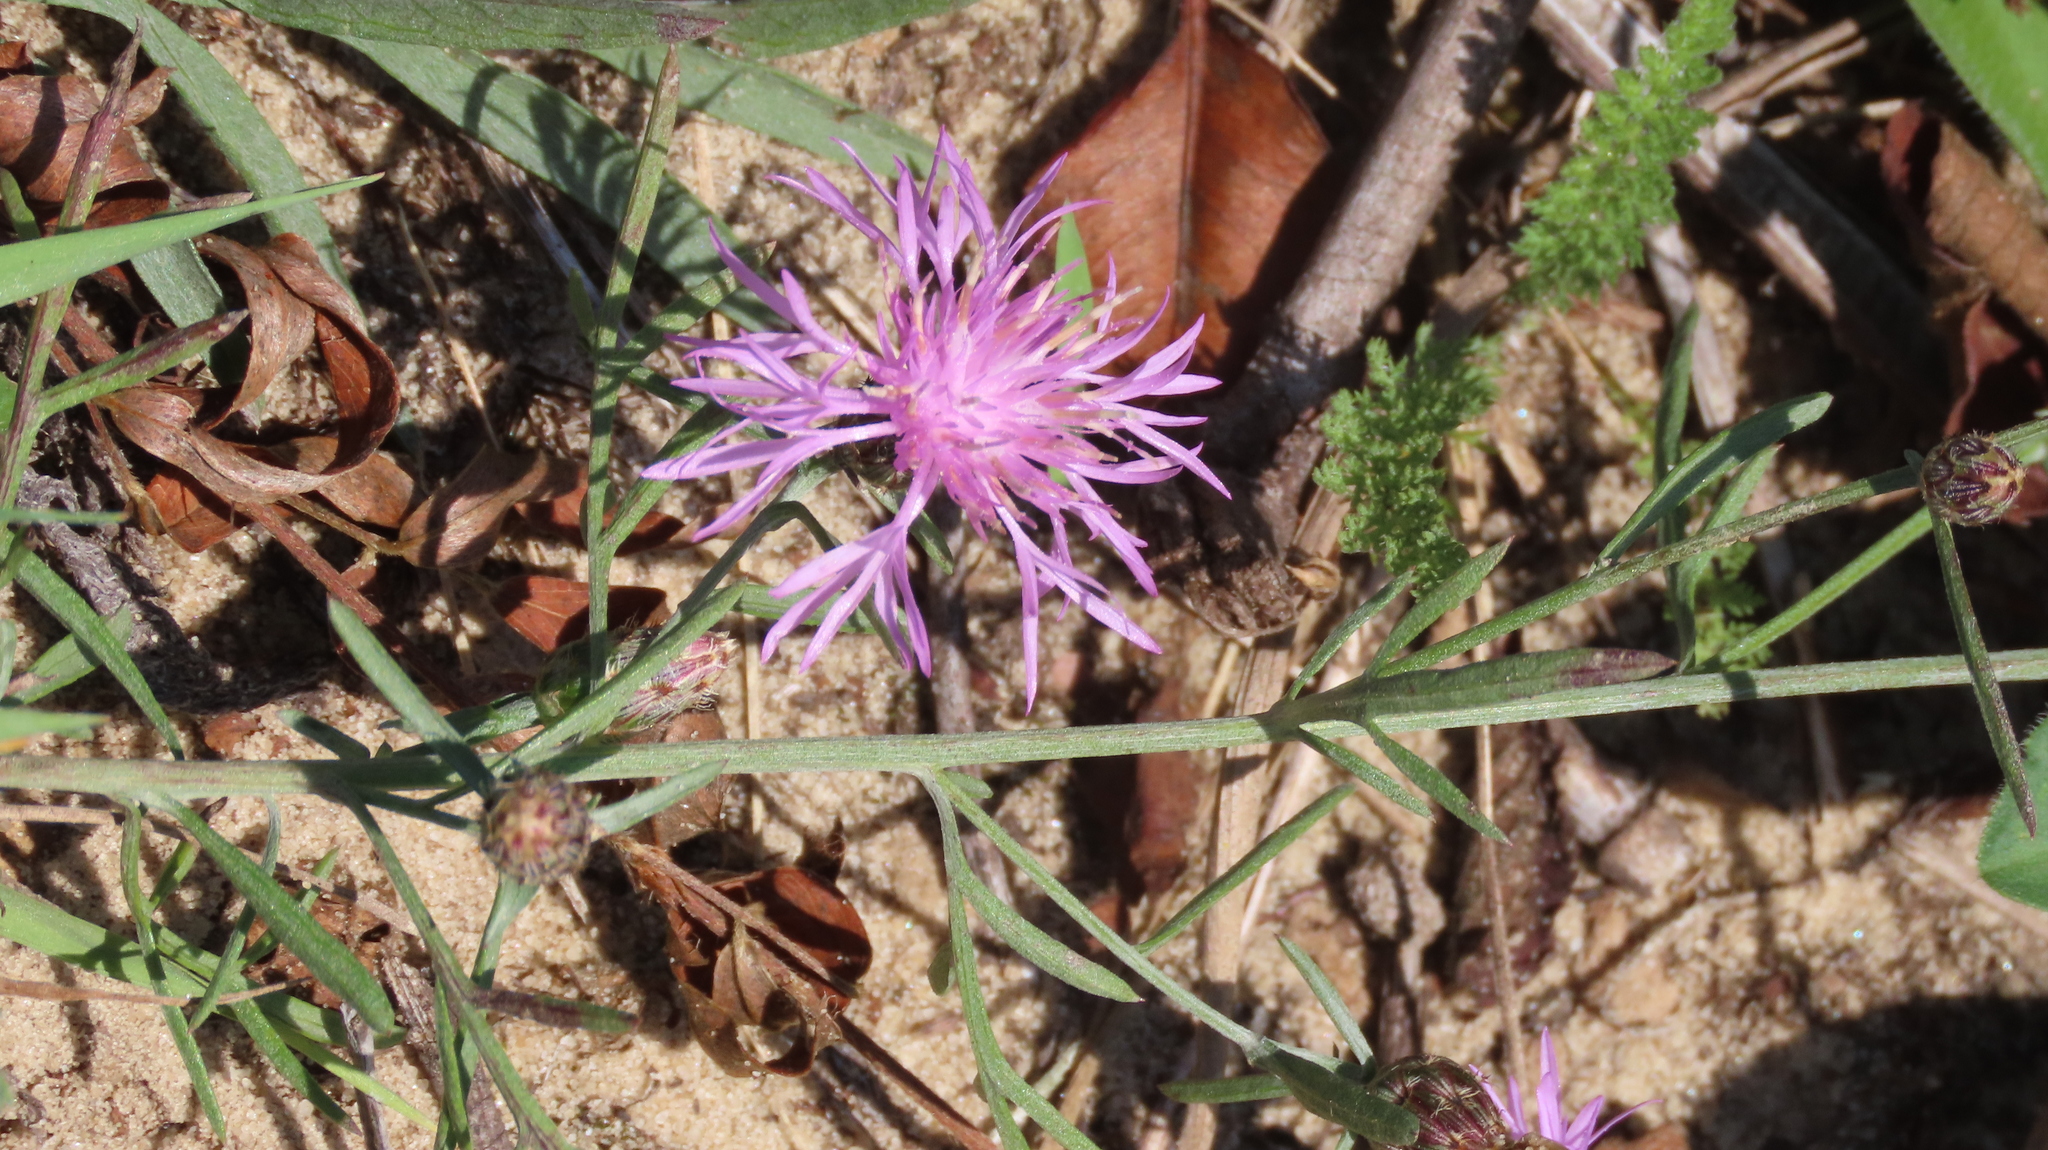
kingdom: Plantae
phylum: Tracheophyta
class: Magnoliopsida
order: Asterales
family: Asteraceae
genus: Centaurea
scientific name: Centaurea stoebe
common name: Spotted knapweed
